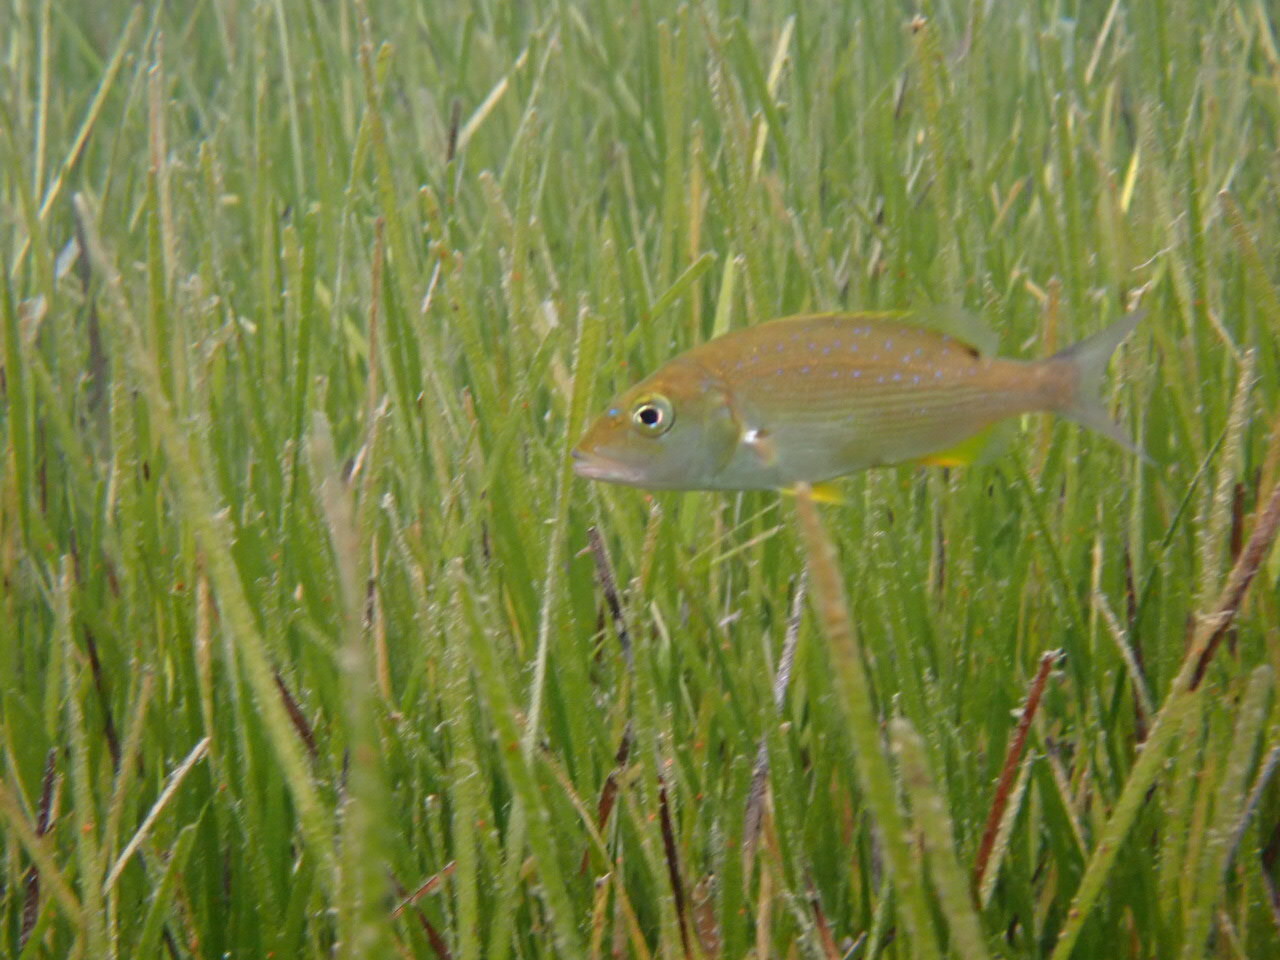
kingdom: Animalia
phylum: Chordata
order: Perciformes
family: Sparidae
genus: Dentex
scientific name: Dentex dentex
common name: Dentex
